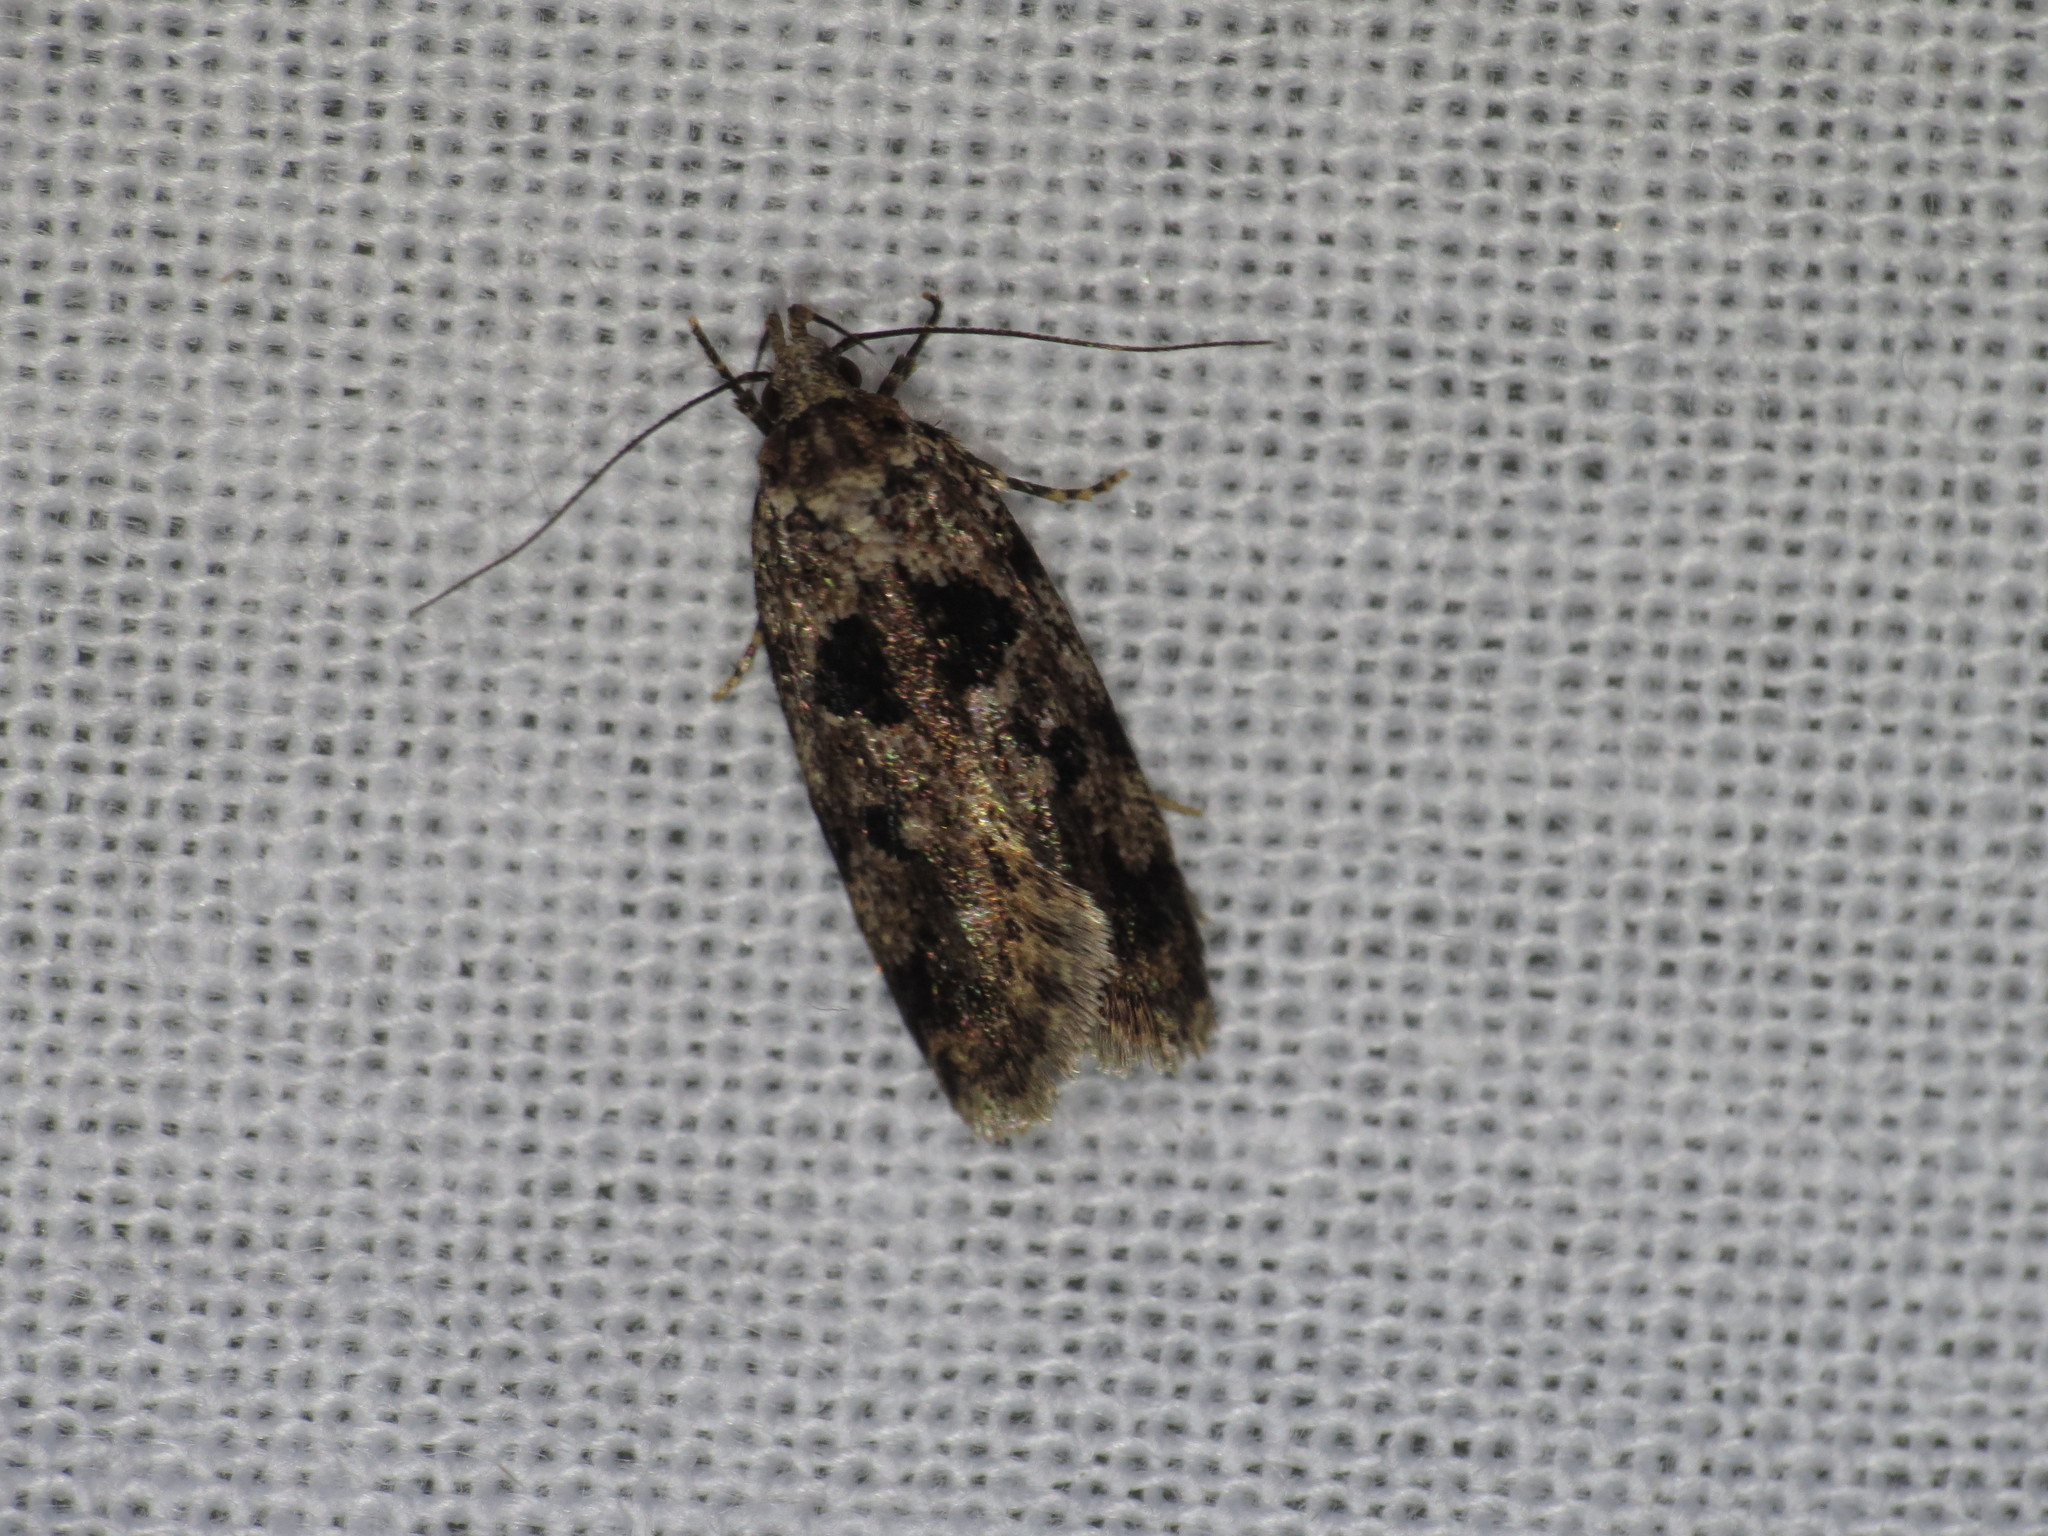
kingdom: Animalia
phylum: Arthropoda
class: Insecta
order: Lepidoptera
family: Oecophoridae
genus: Barea
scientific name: Barea melanodelta
